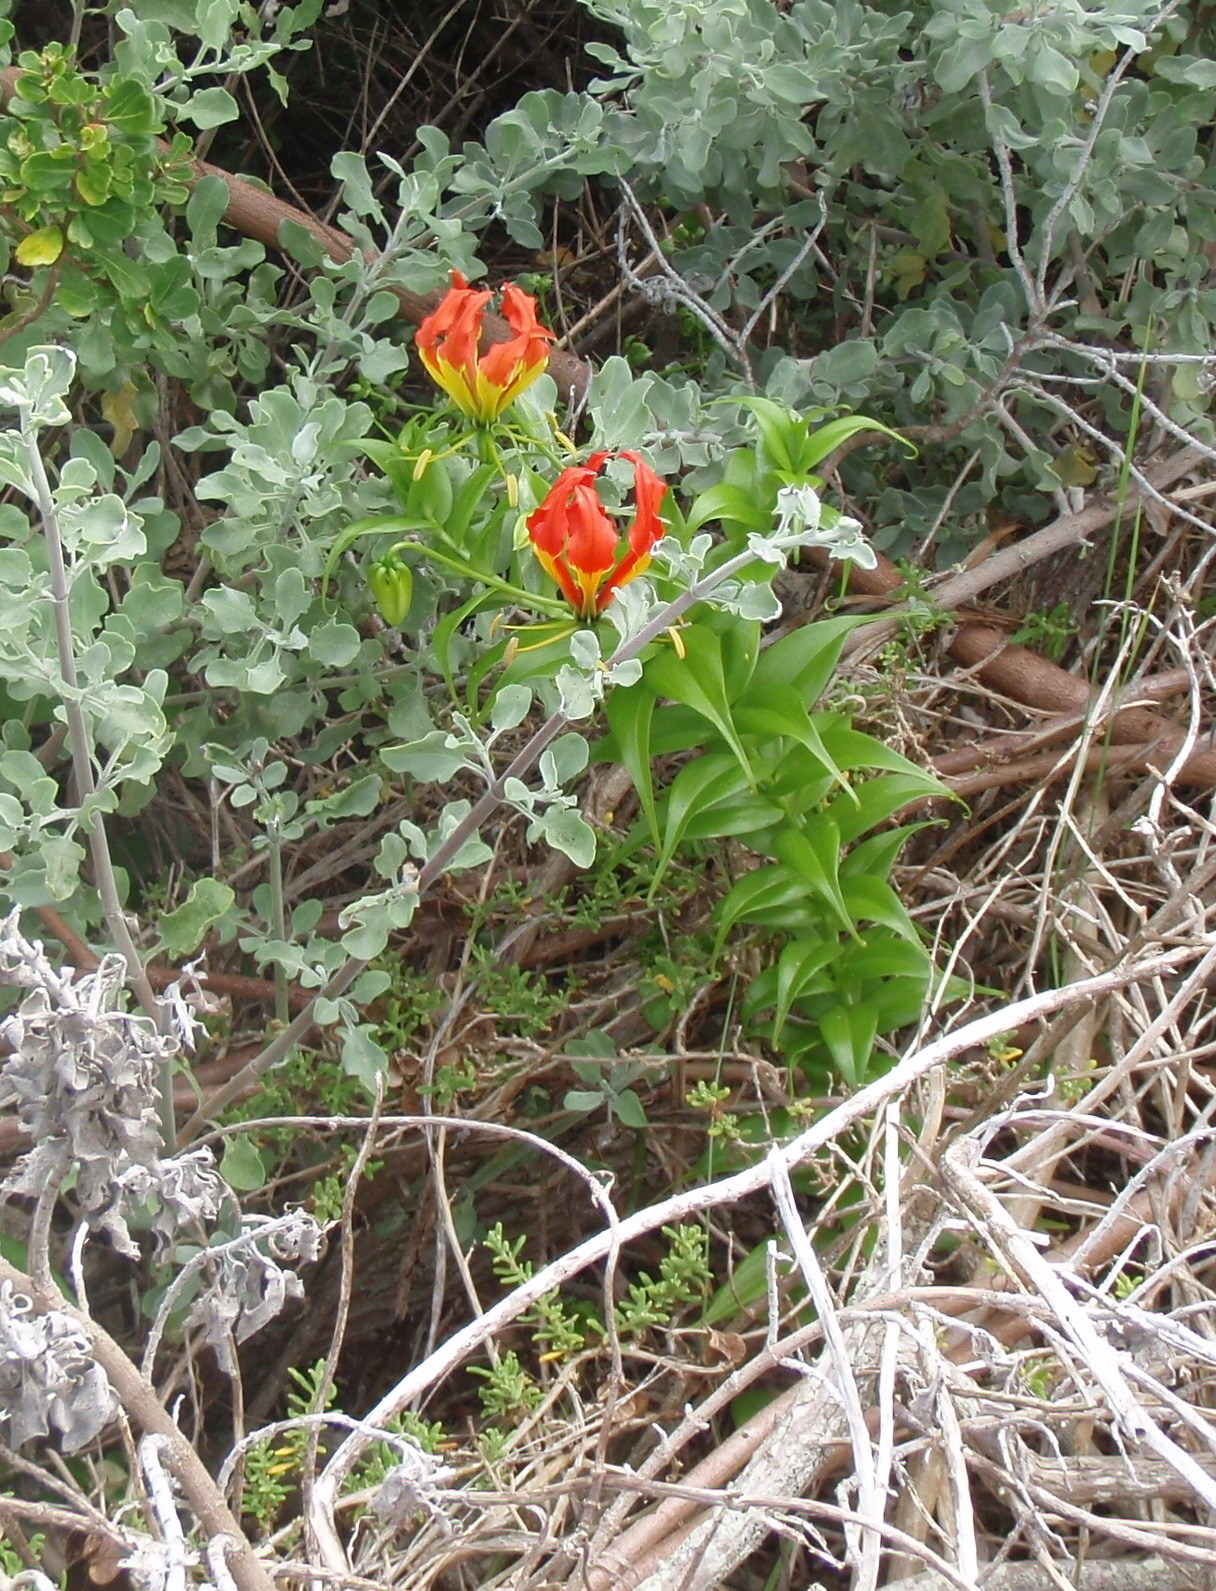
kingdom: Plantae
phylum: Tracheophyta
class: Liliopsida
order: Liliales
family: Colchicaceae
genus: Gloriosa
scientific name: Gloriosa superba
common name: Flame lily
